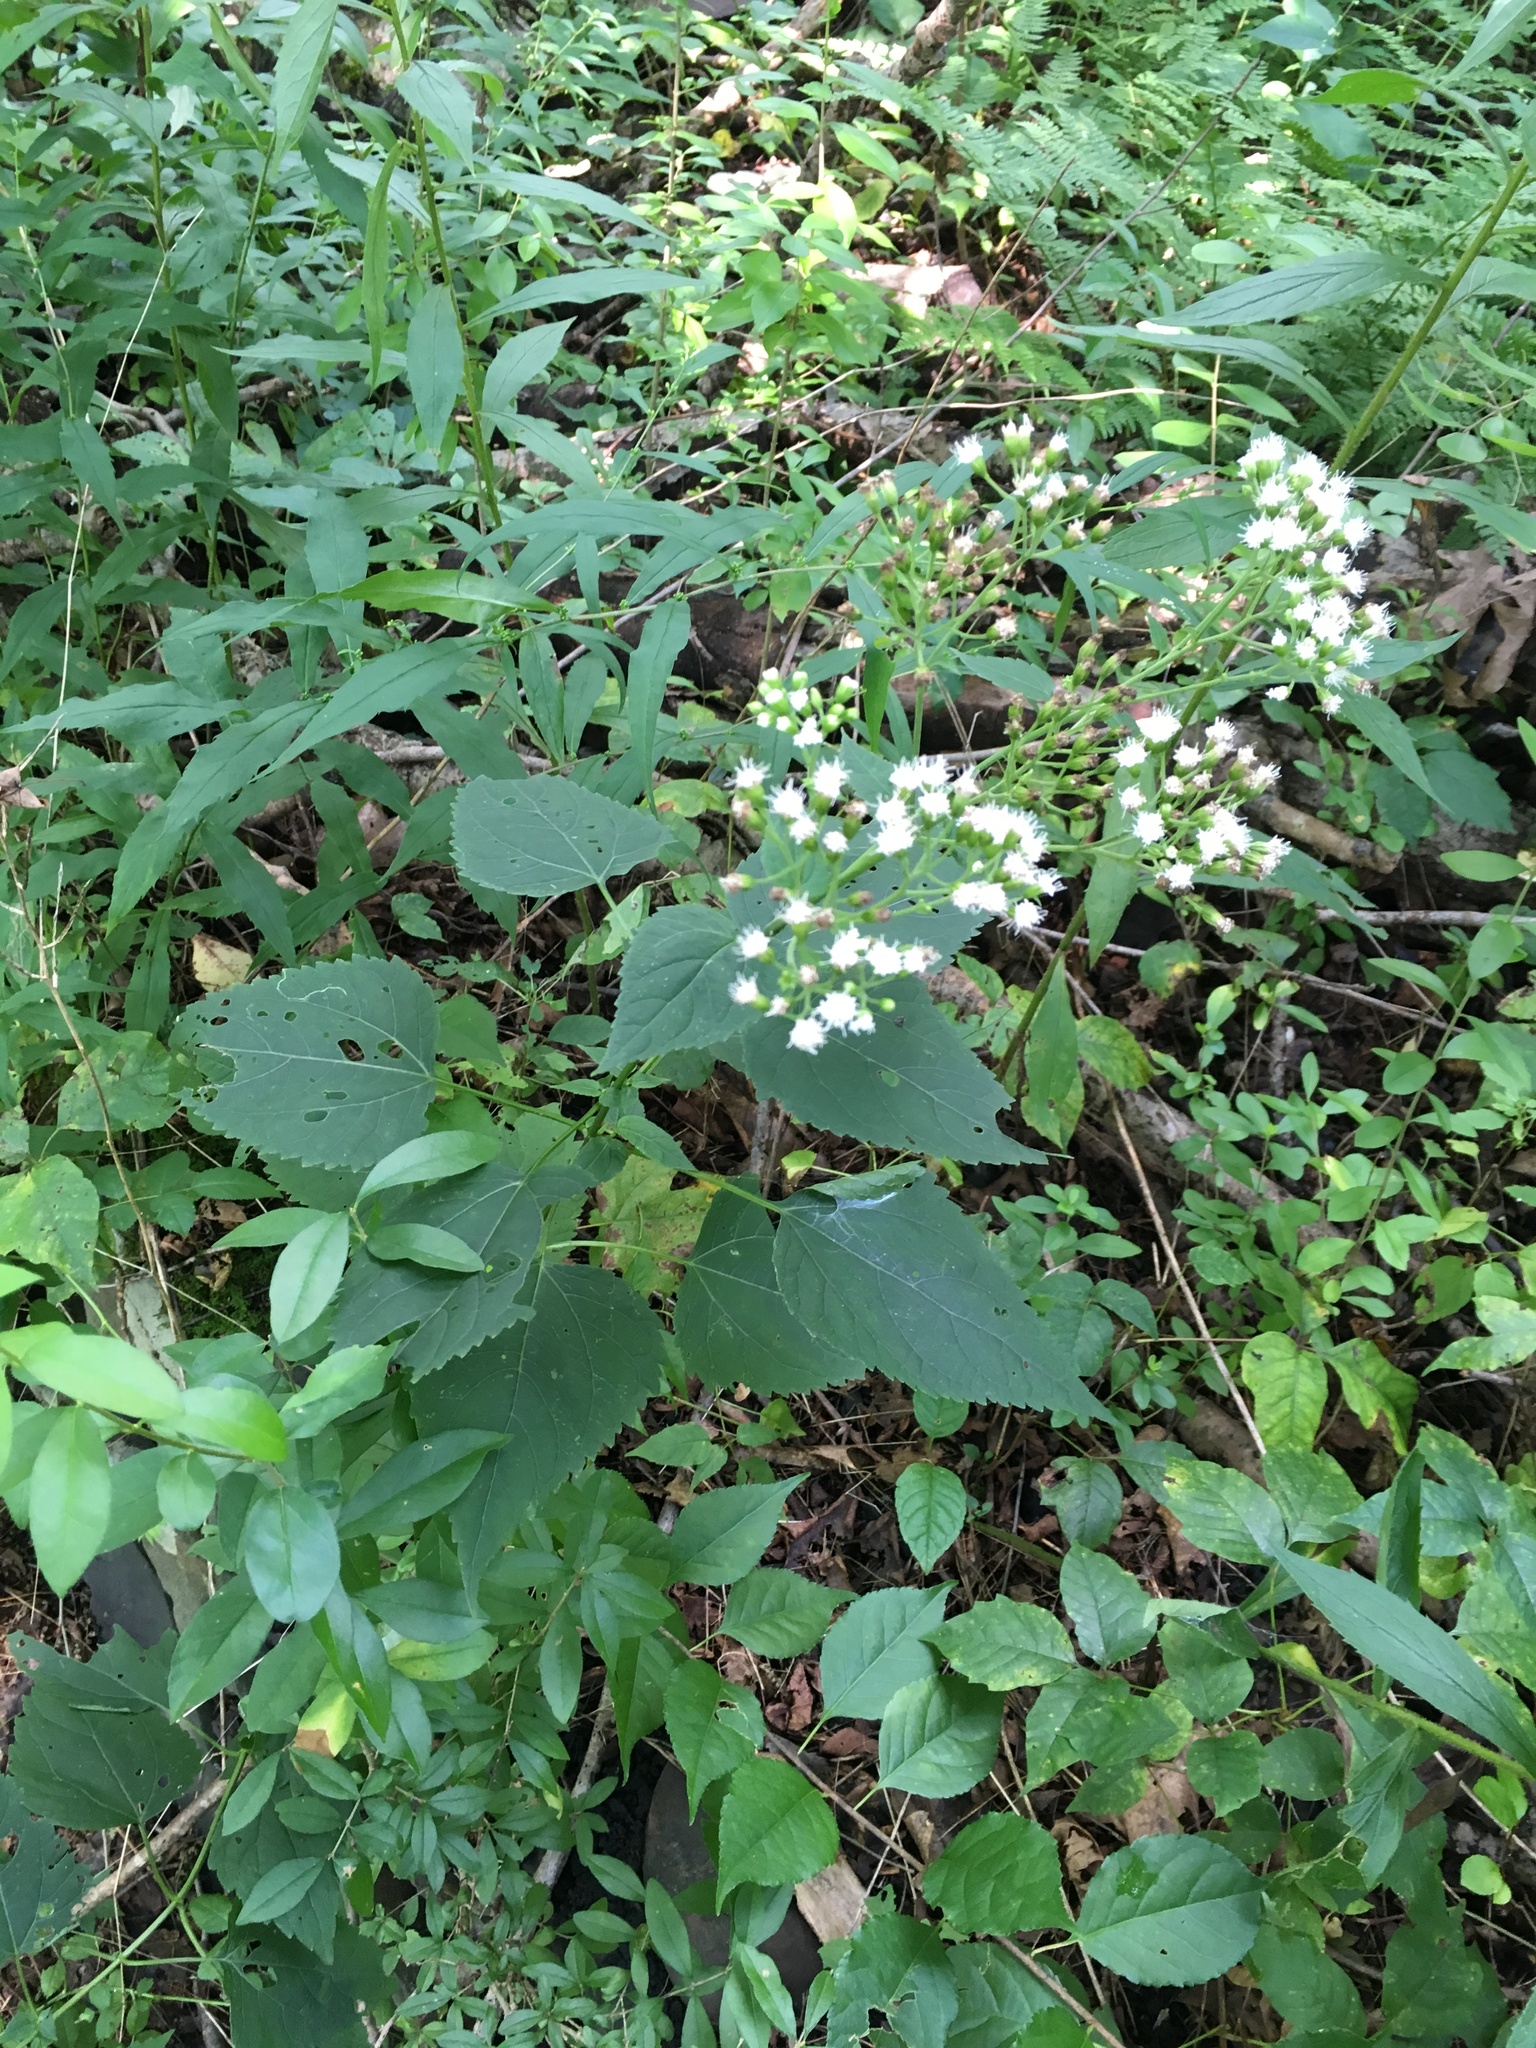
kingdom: Plantae
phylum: Tracheophyta
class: Magnoliopsida
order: Asterales
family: Asteraceae
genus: Ageratina
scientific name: Ageratina altissima
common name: White snakeroot
